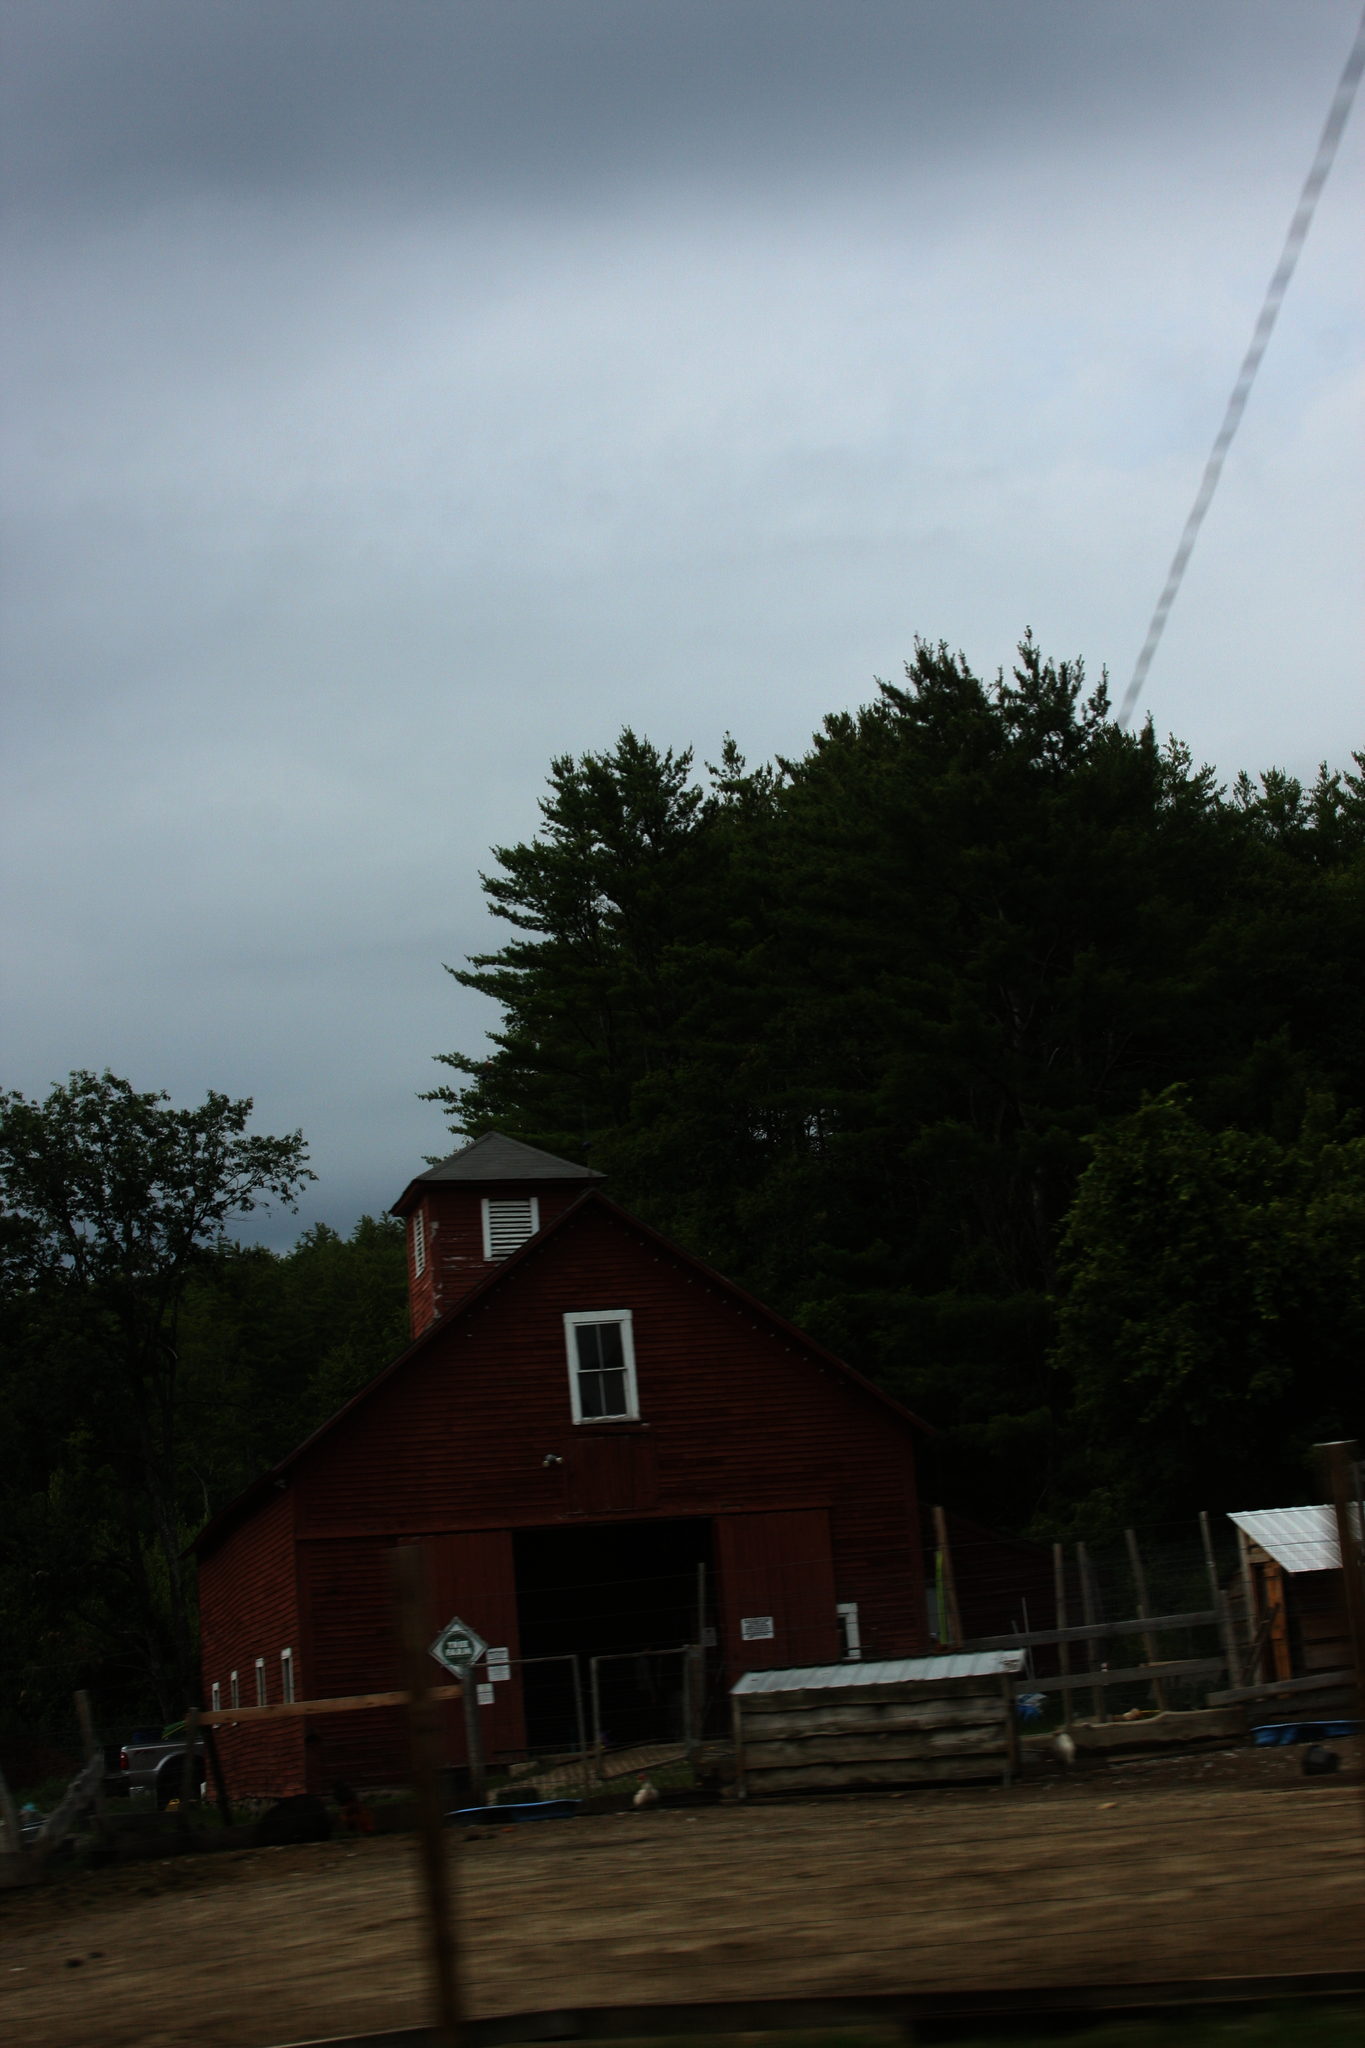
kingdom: Plantae
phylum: Tracheophyta
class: Pinopsida
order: Pinales
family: Pinaceae
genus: Pinus
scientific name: Pinus strobus
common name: Weymouth pine
